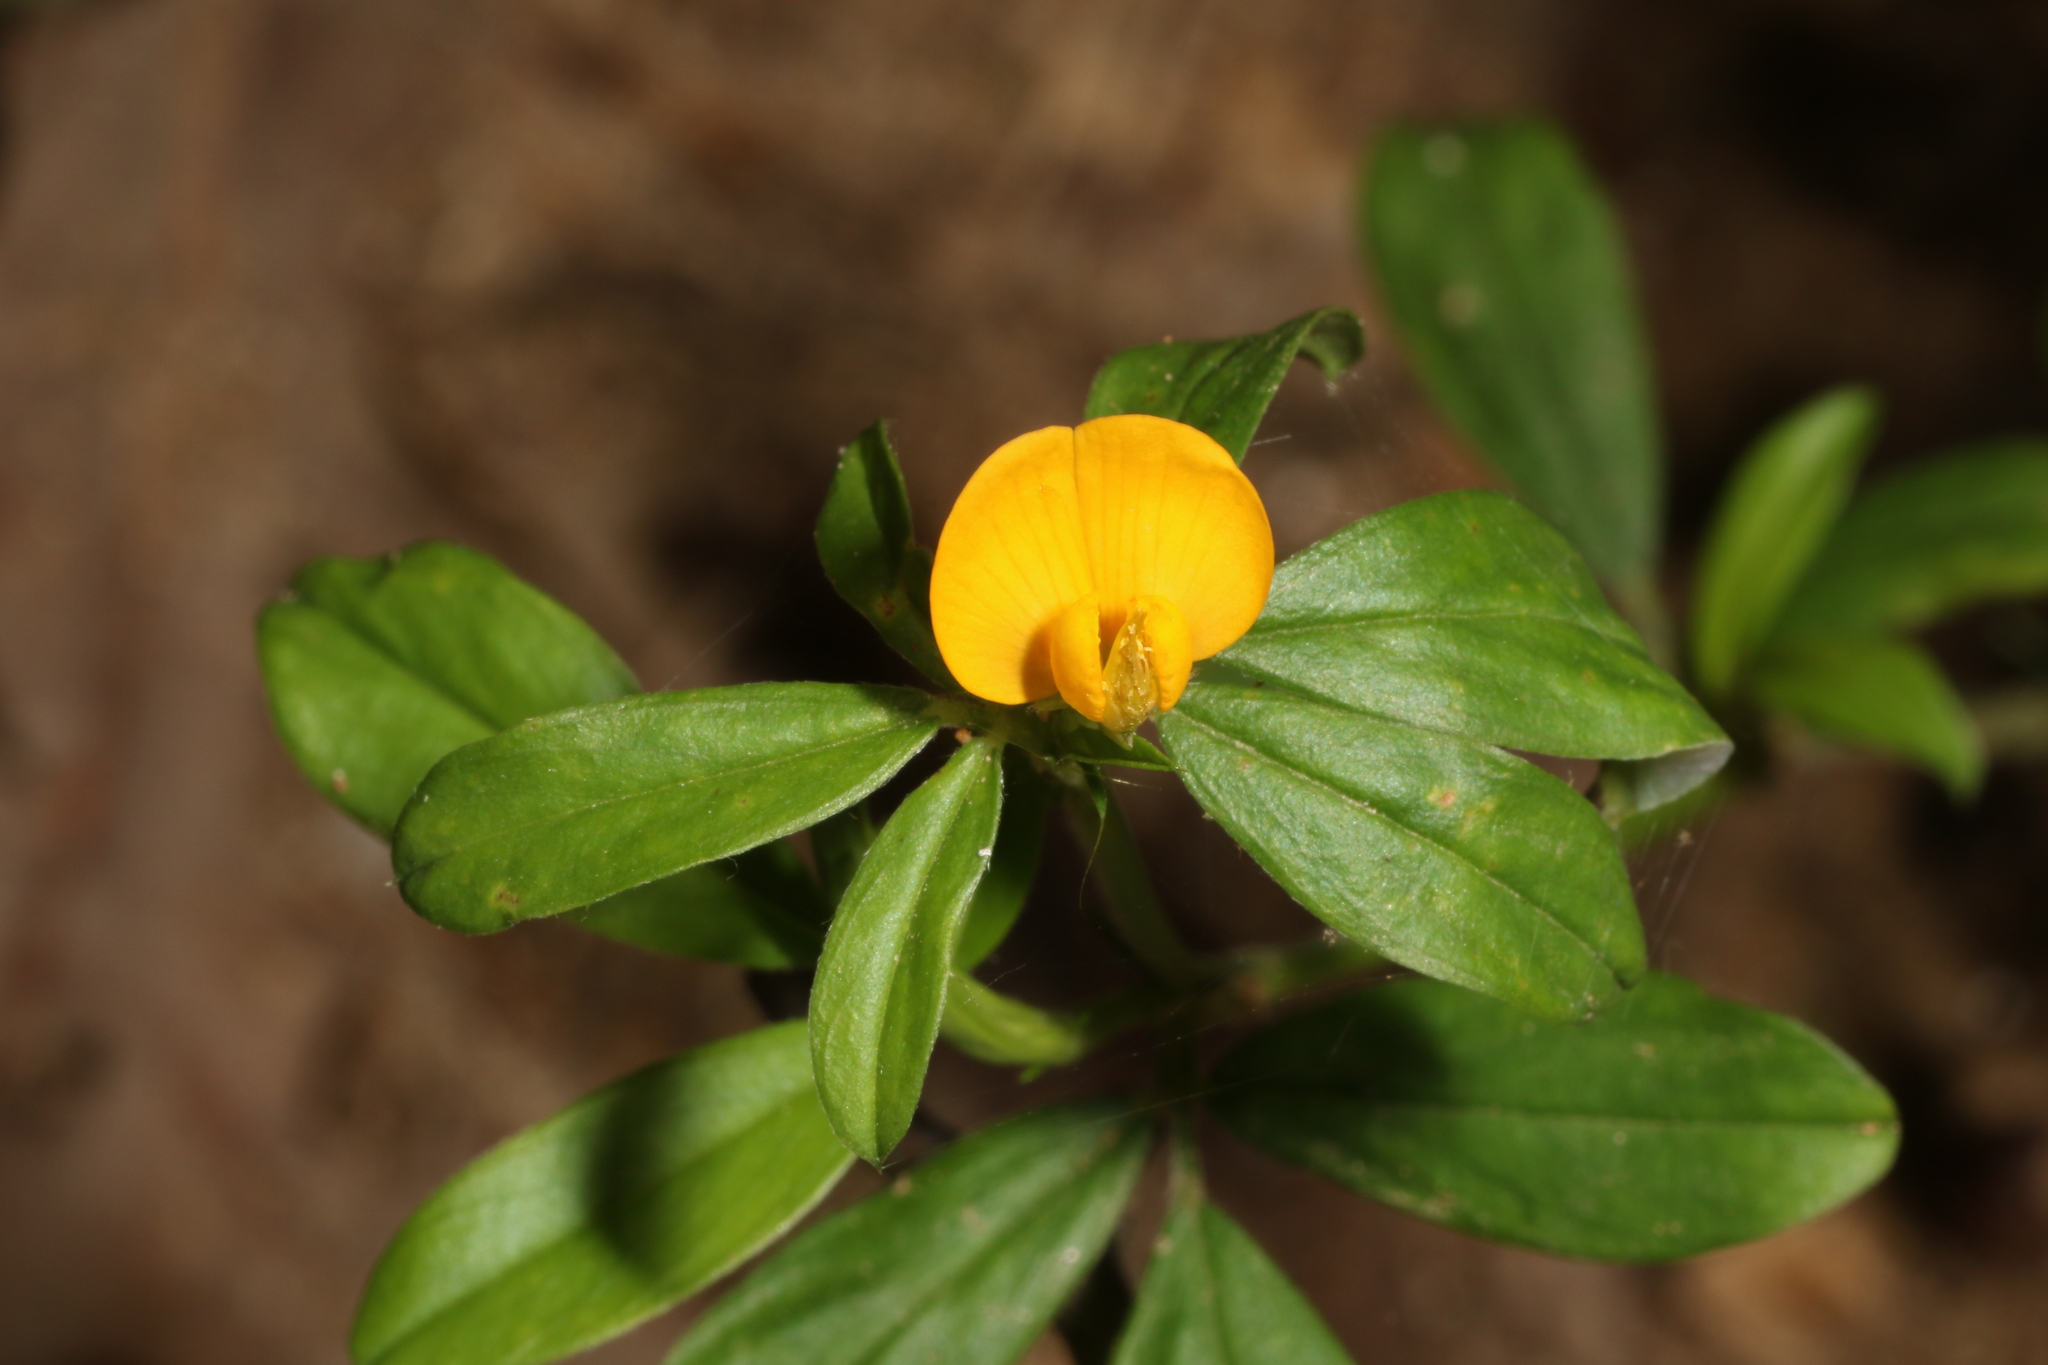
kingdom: Plantae
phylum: Tracheophyta
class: Magnoliopsida
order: Fabales
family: Fabaceae
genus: Stylosanthes
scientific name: Stylosanthes biflora
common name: Two-flower pencil-flower
